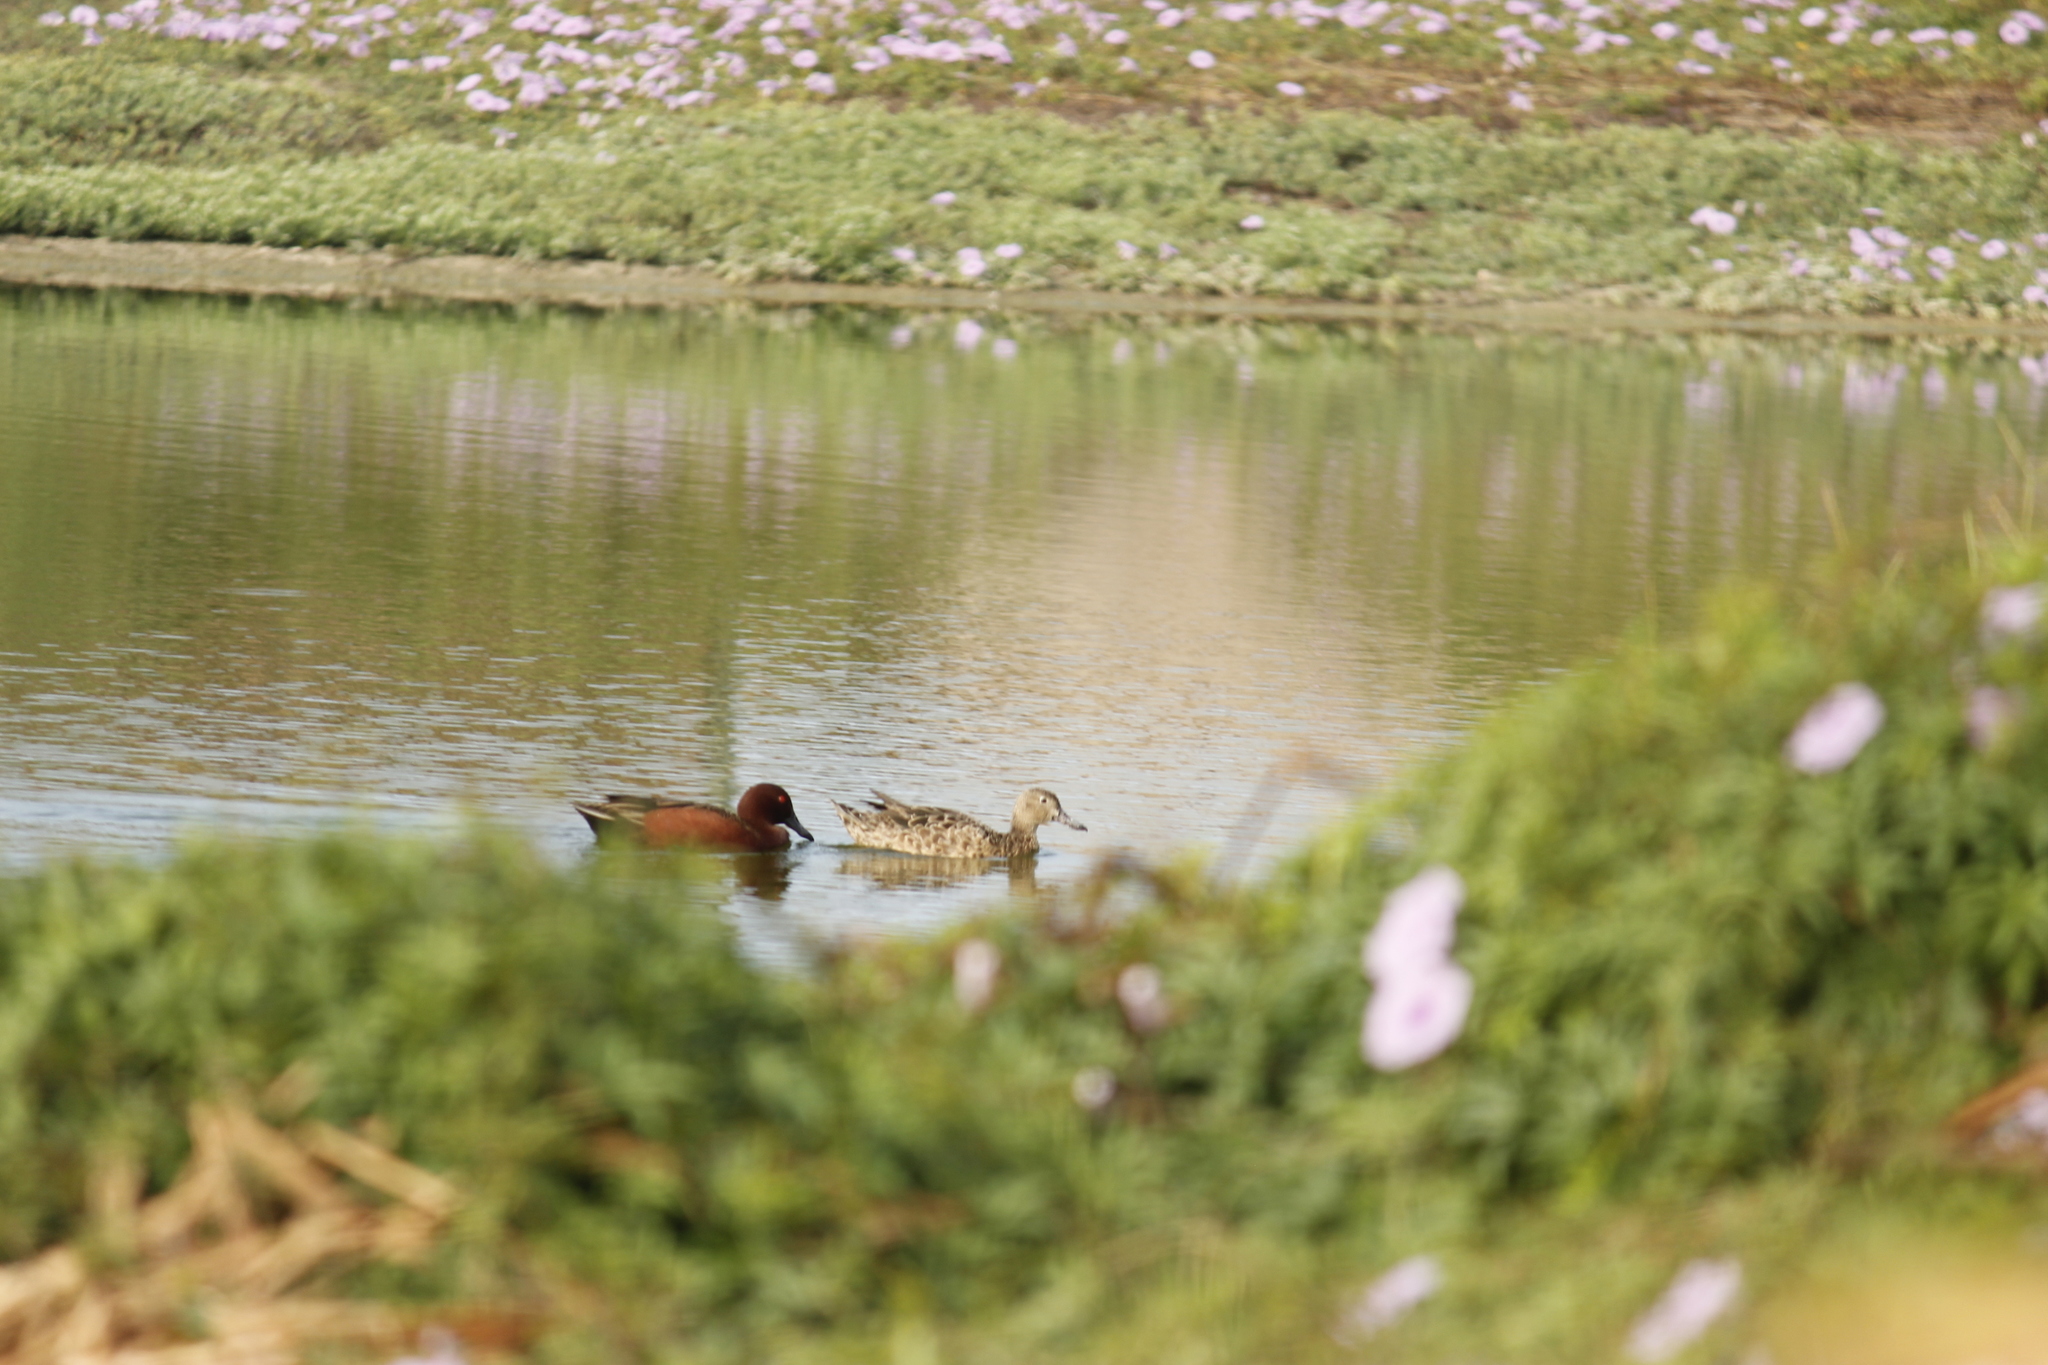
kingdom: Animalia
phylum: Chordata
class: Aves
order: Anseriformes
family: Anatidae
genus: Spatula
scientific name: Spatula cyanoptera
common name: Cinnamon teal
